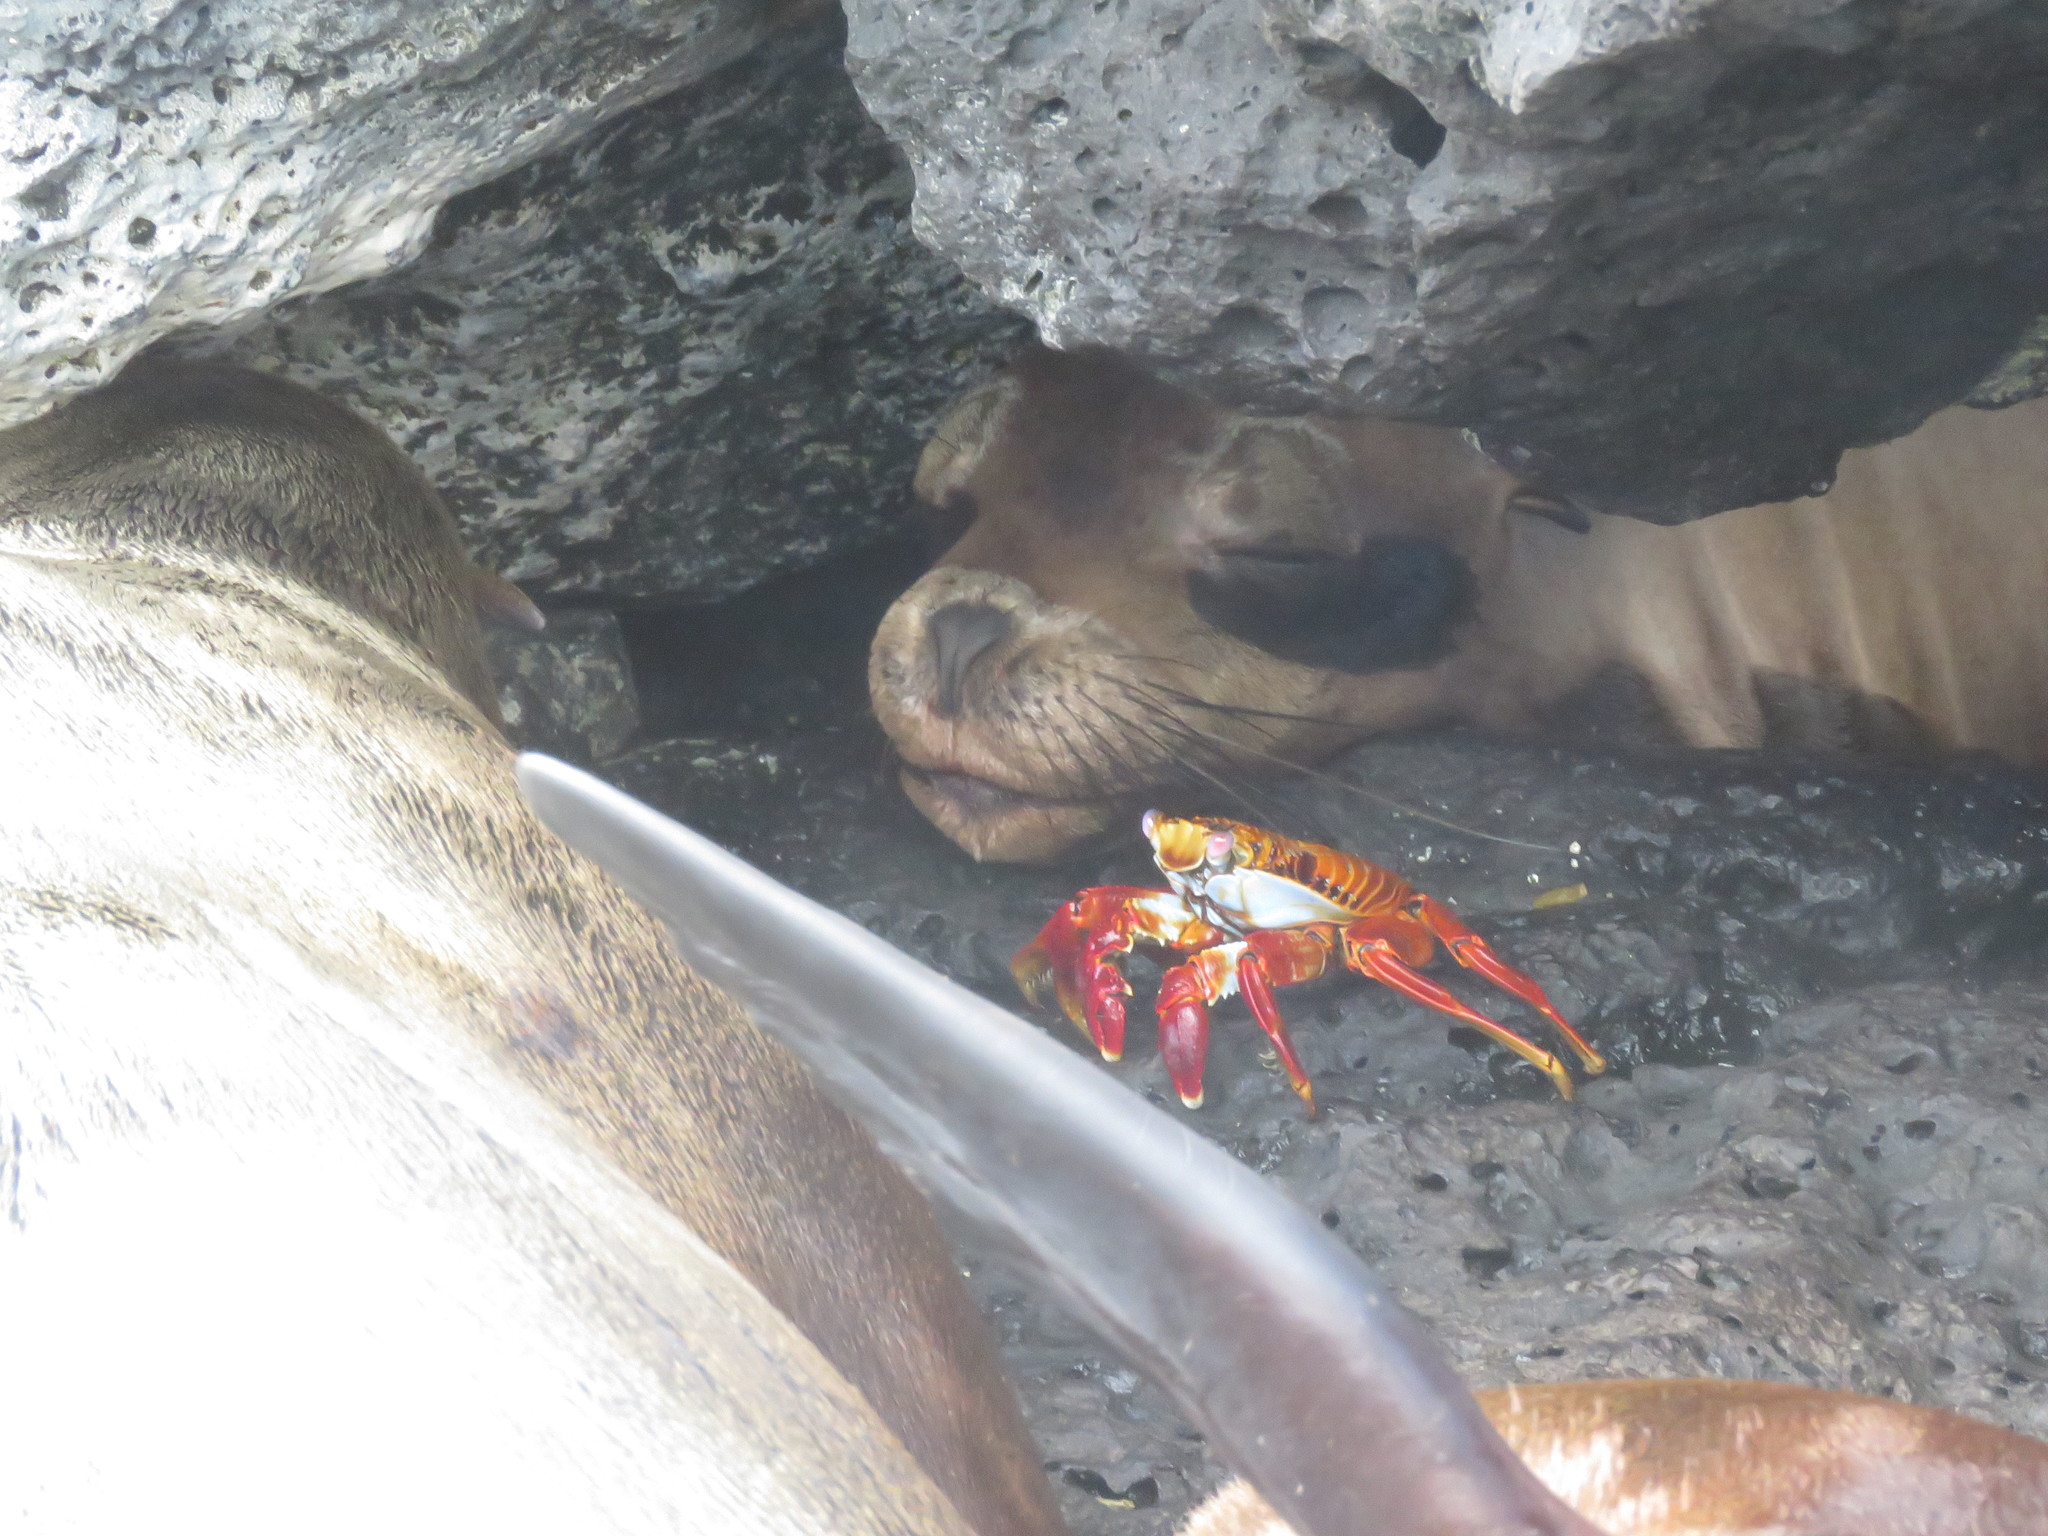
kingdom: Animalia
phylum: Arthropoda
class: Malacostraca
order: Decapoda
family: Grapsidae
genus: Grapsus
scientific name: Grapsus grapsus
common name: Sally lightfoot
